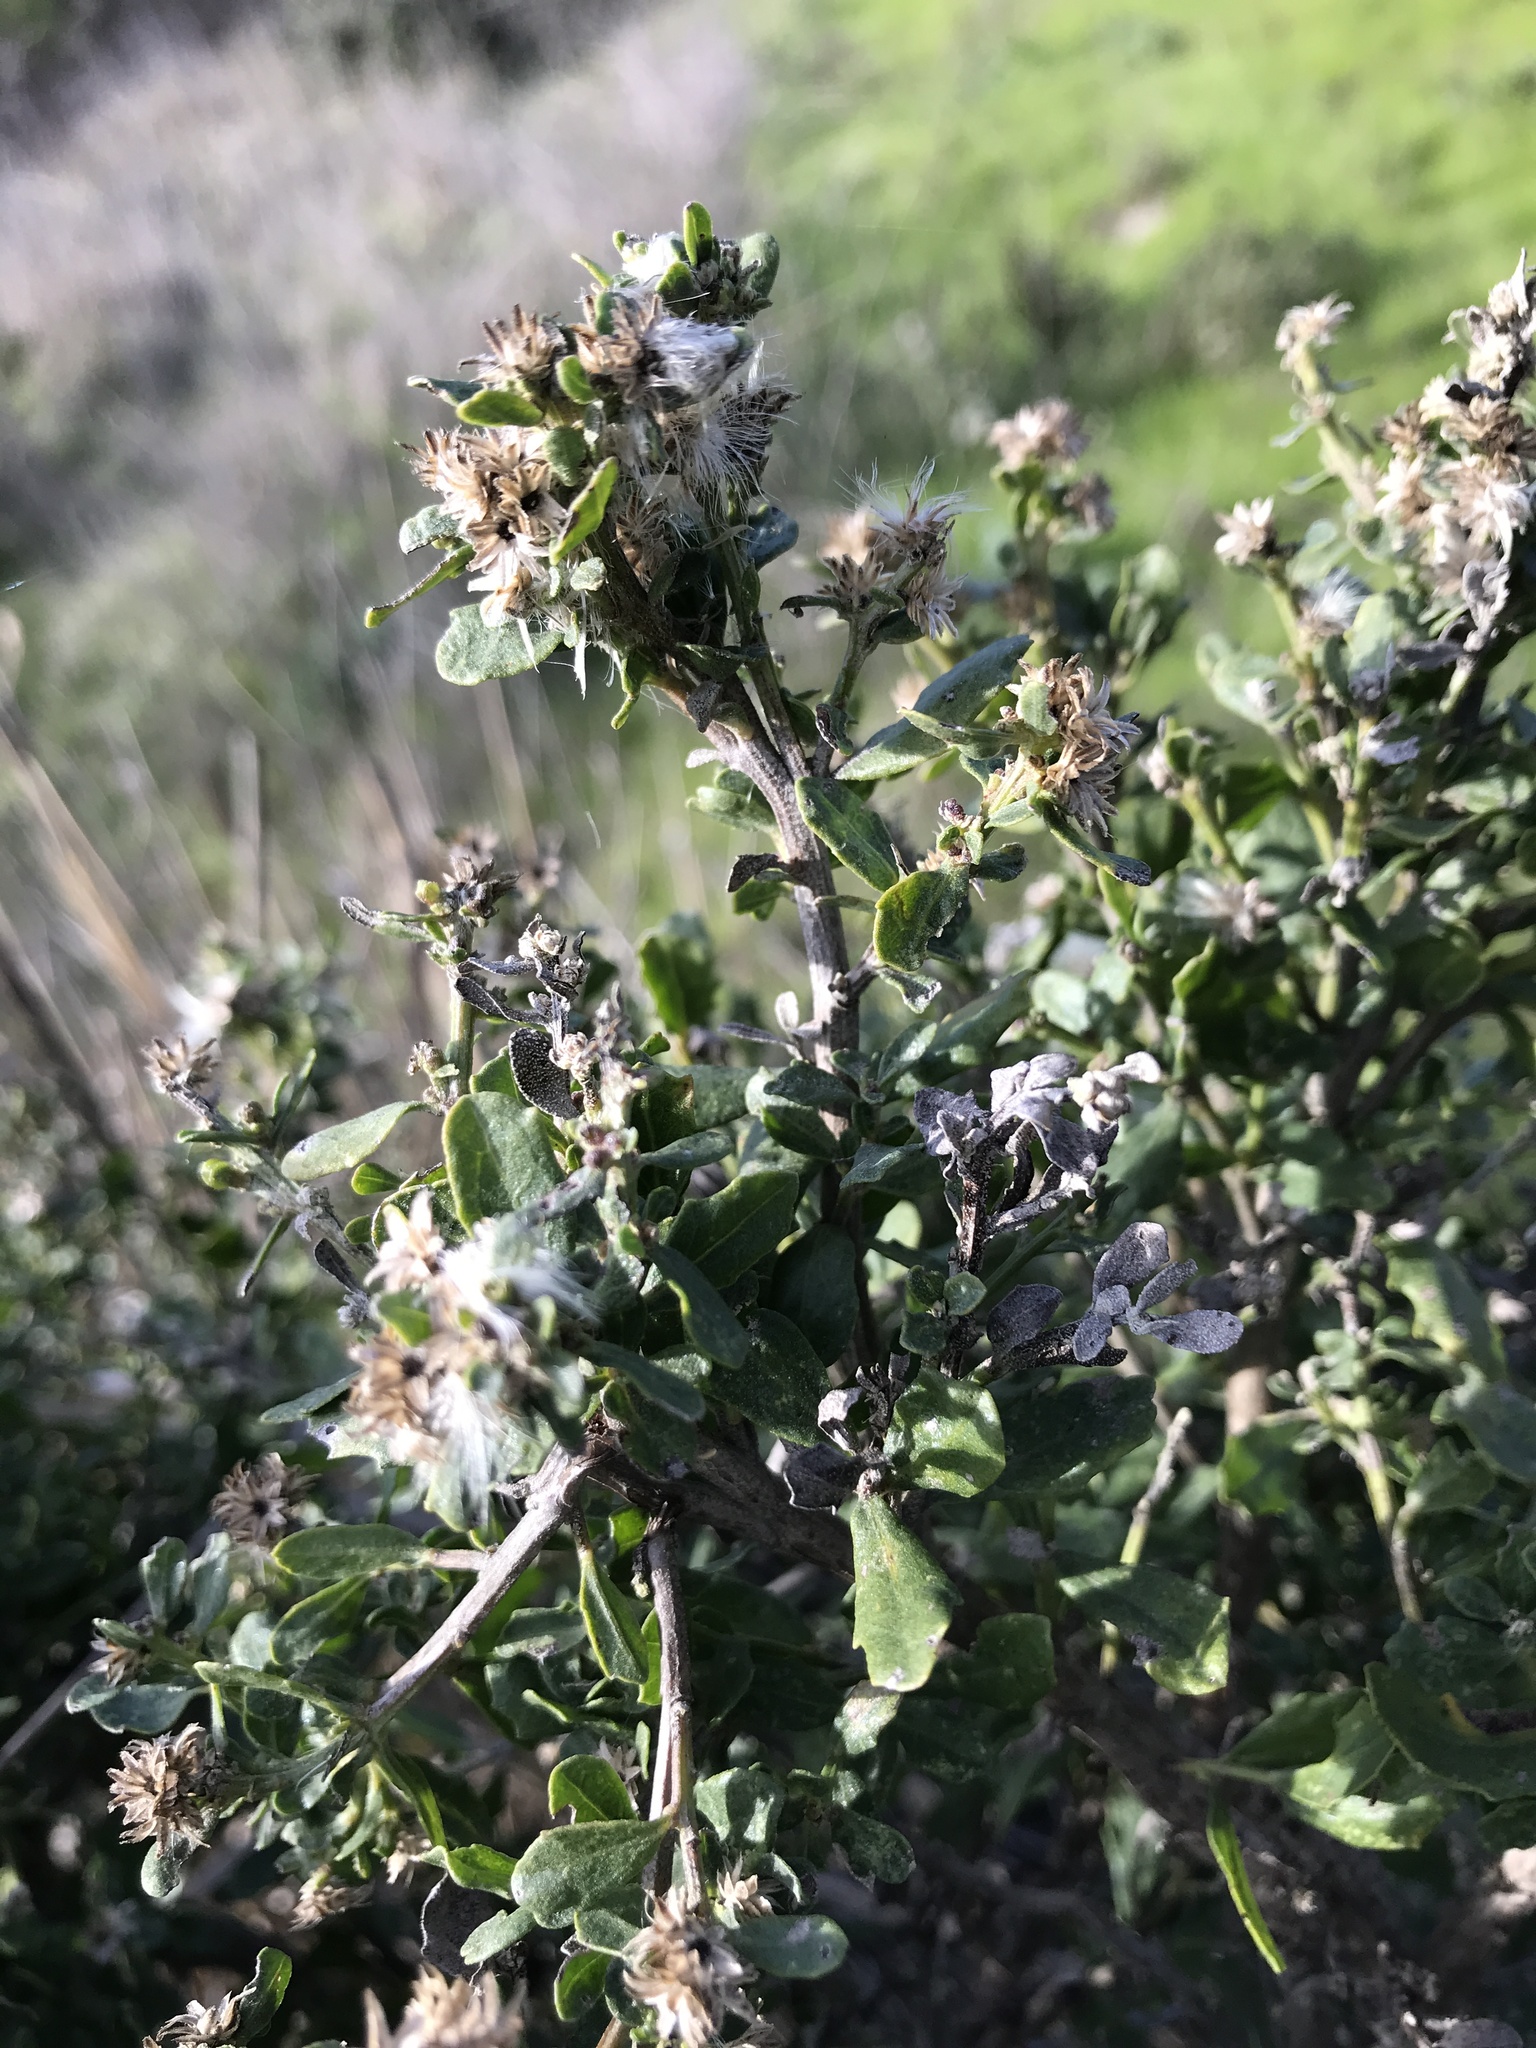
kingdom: Plantae
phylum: Tracheophyta
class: Magnoliopsida
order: Asterales
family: Asteraceae
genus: Baccharis
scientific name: Baccharis pilularis
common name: Coyotebrush
